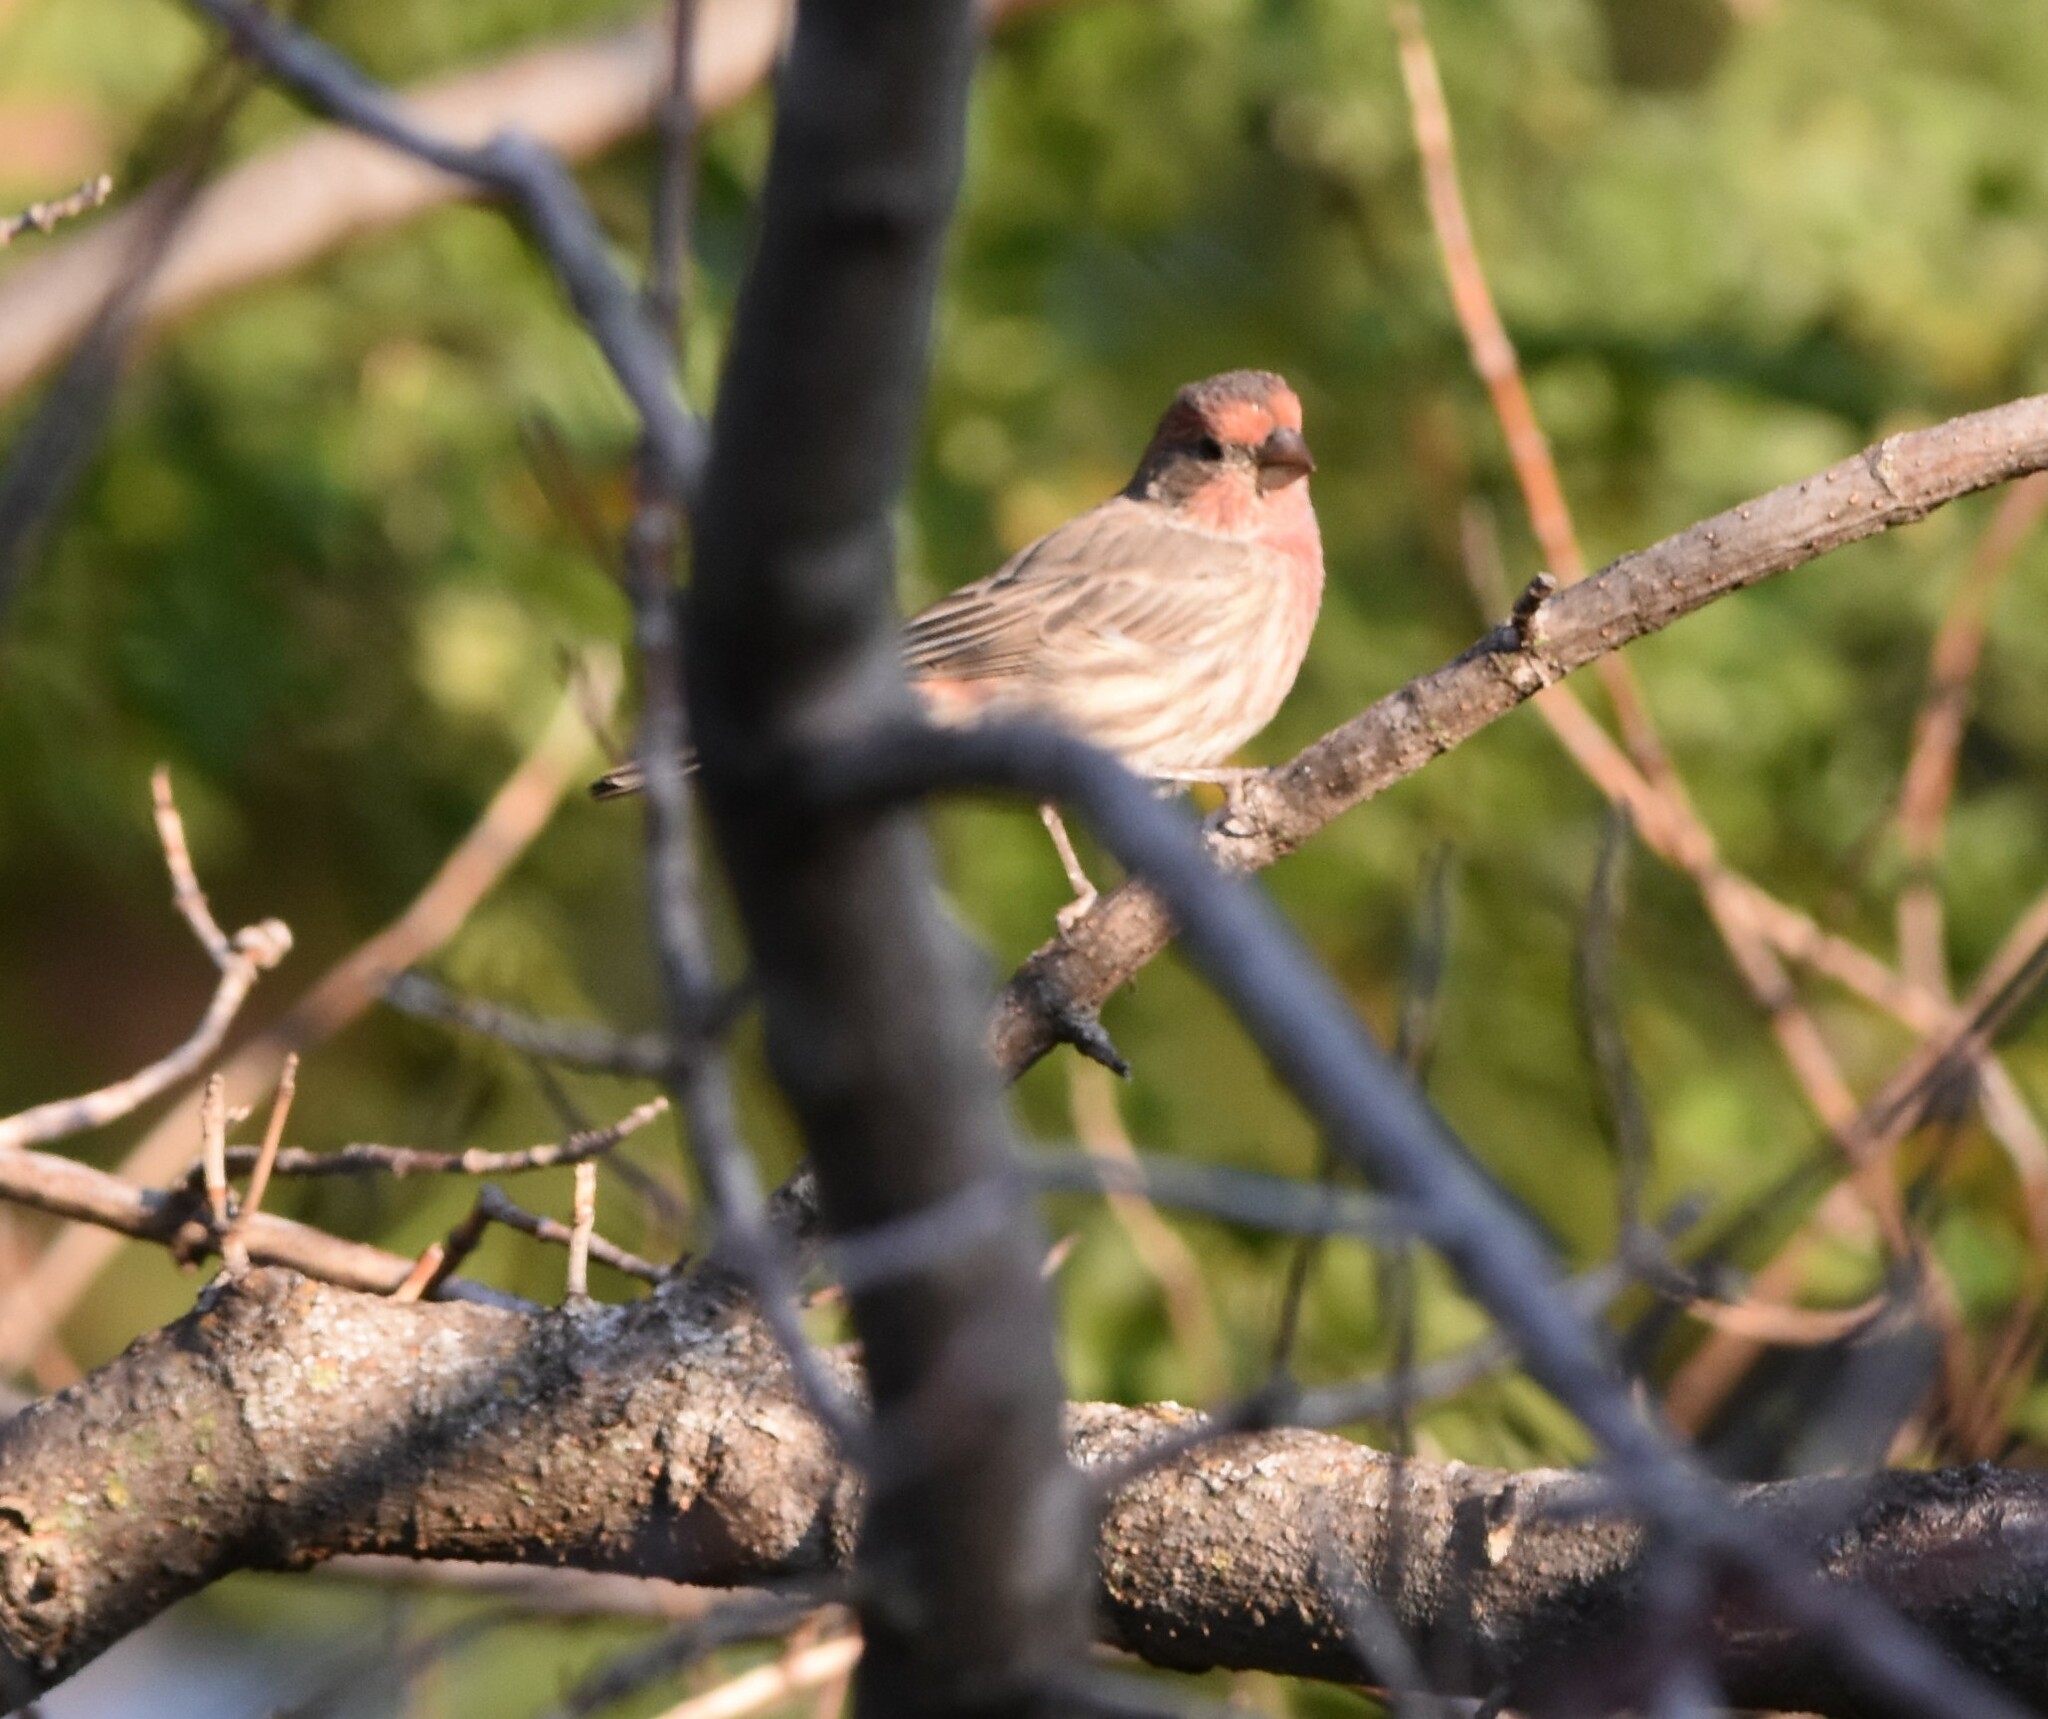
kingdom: Animalia
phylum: Chordata
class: Aves
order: Passeriformes
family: Fringillidae
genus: Haemorhous
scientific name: Haemorhous mexicanus
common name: House finch
